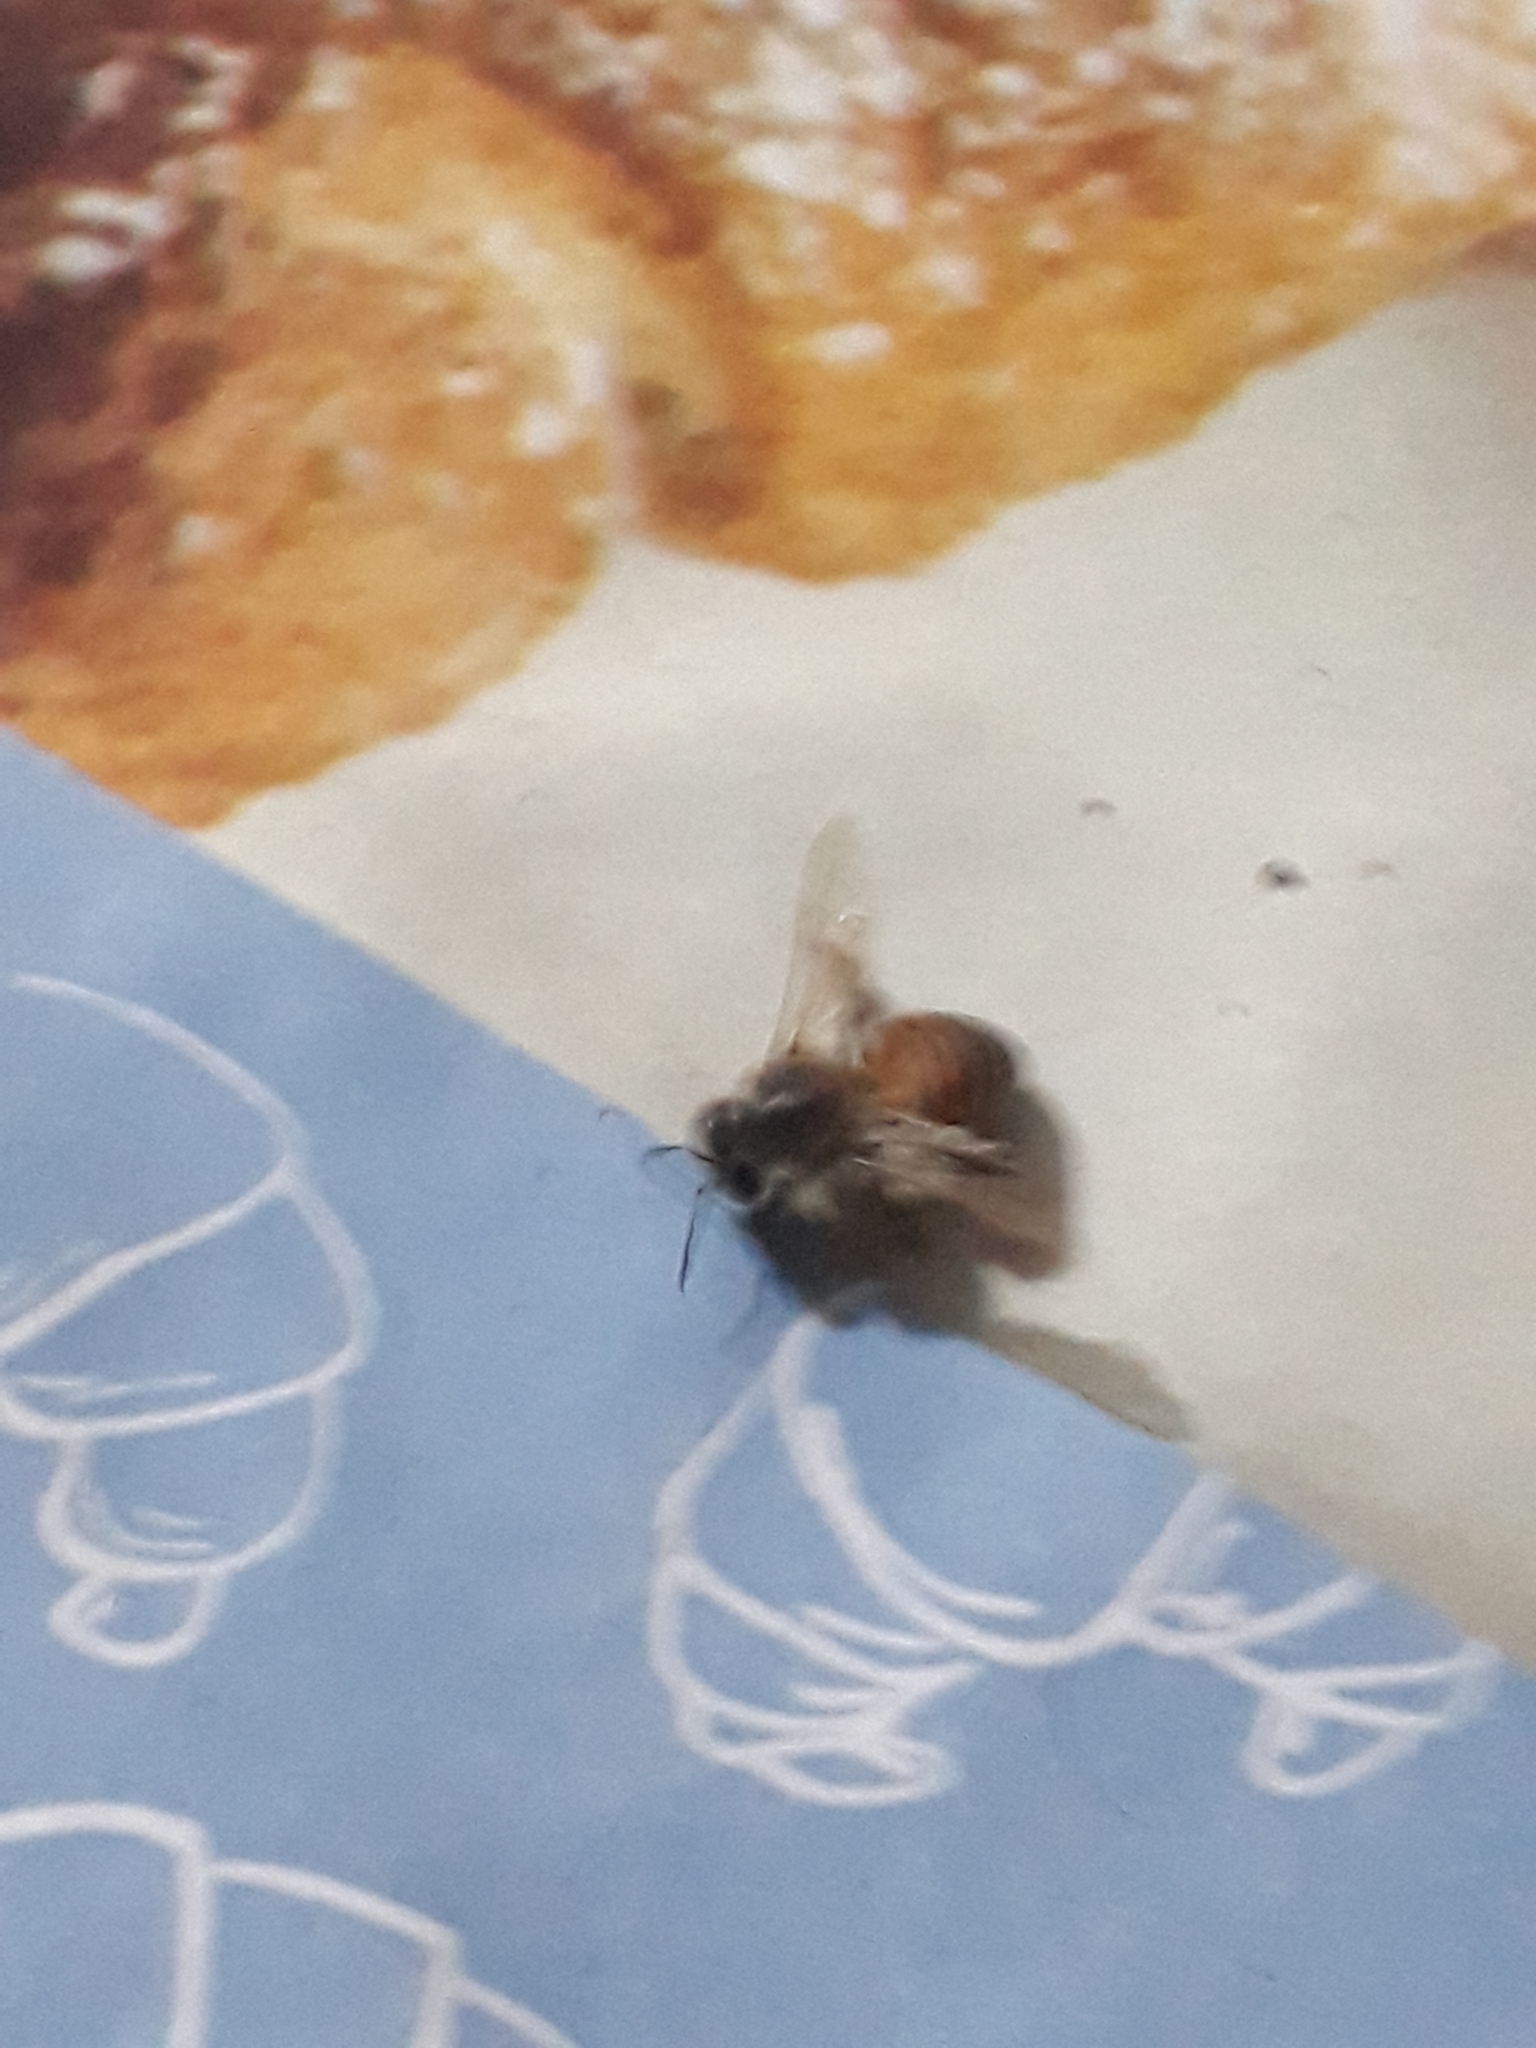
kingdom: Animalia
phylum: Arthropoda
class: Insecta
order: Hymenoptera
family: Apidae
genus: Apis
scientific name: Apis mellifera
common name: Honey bee
